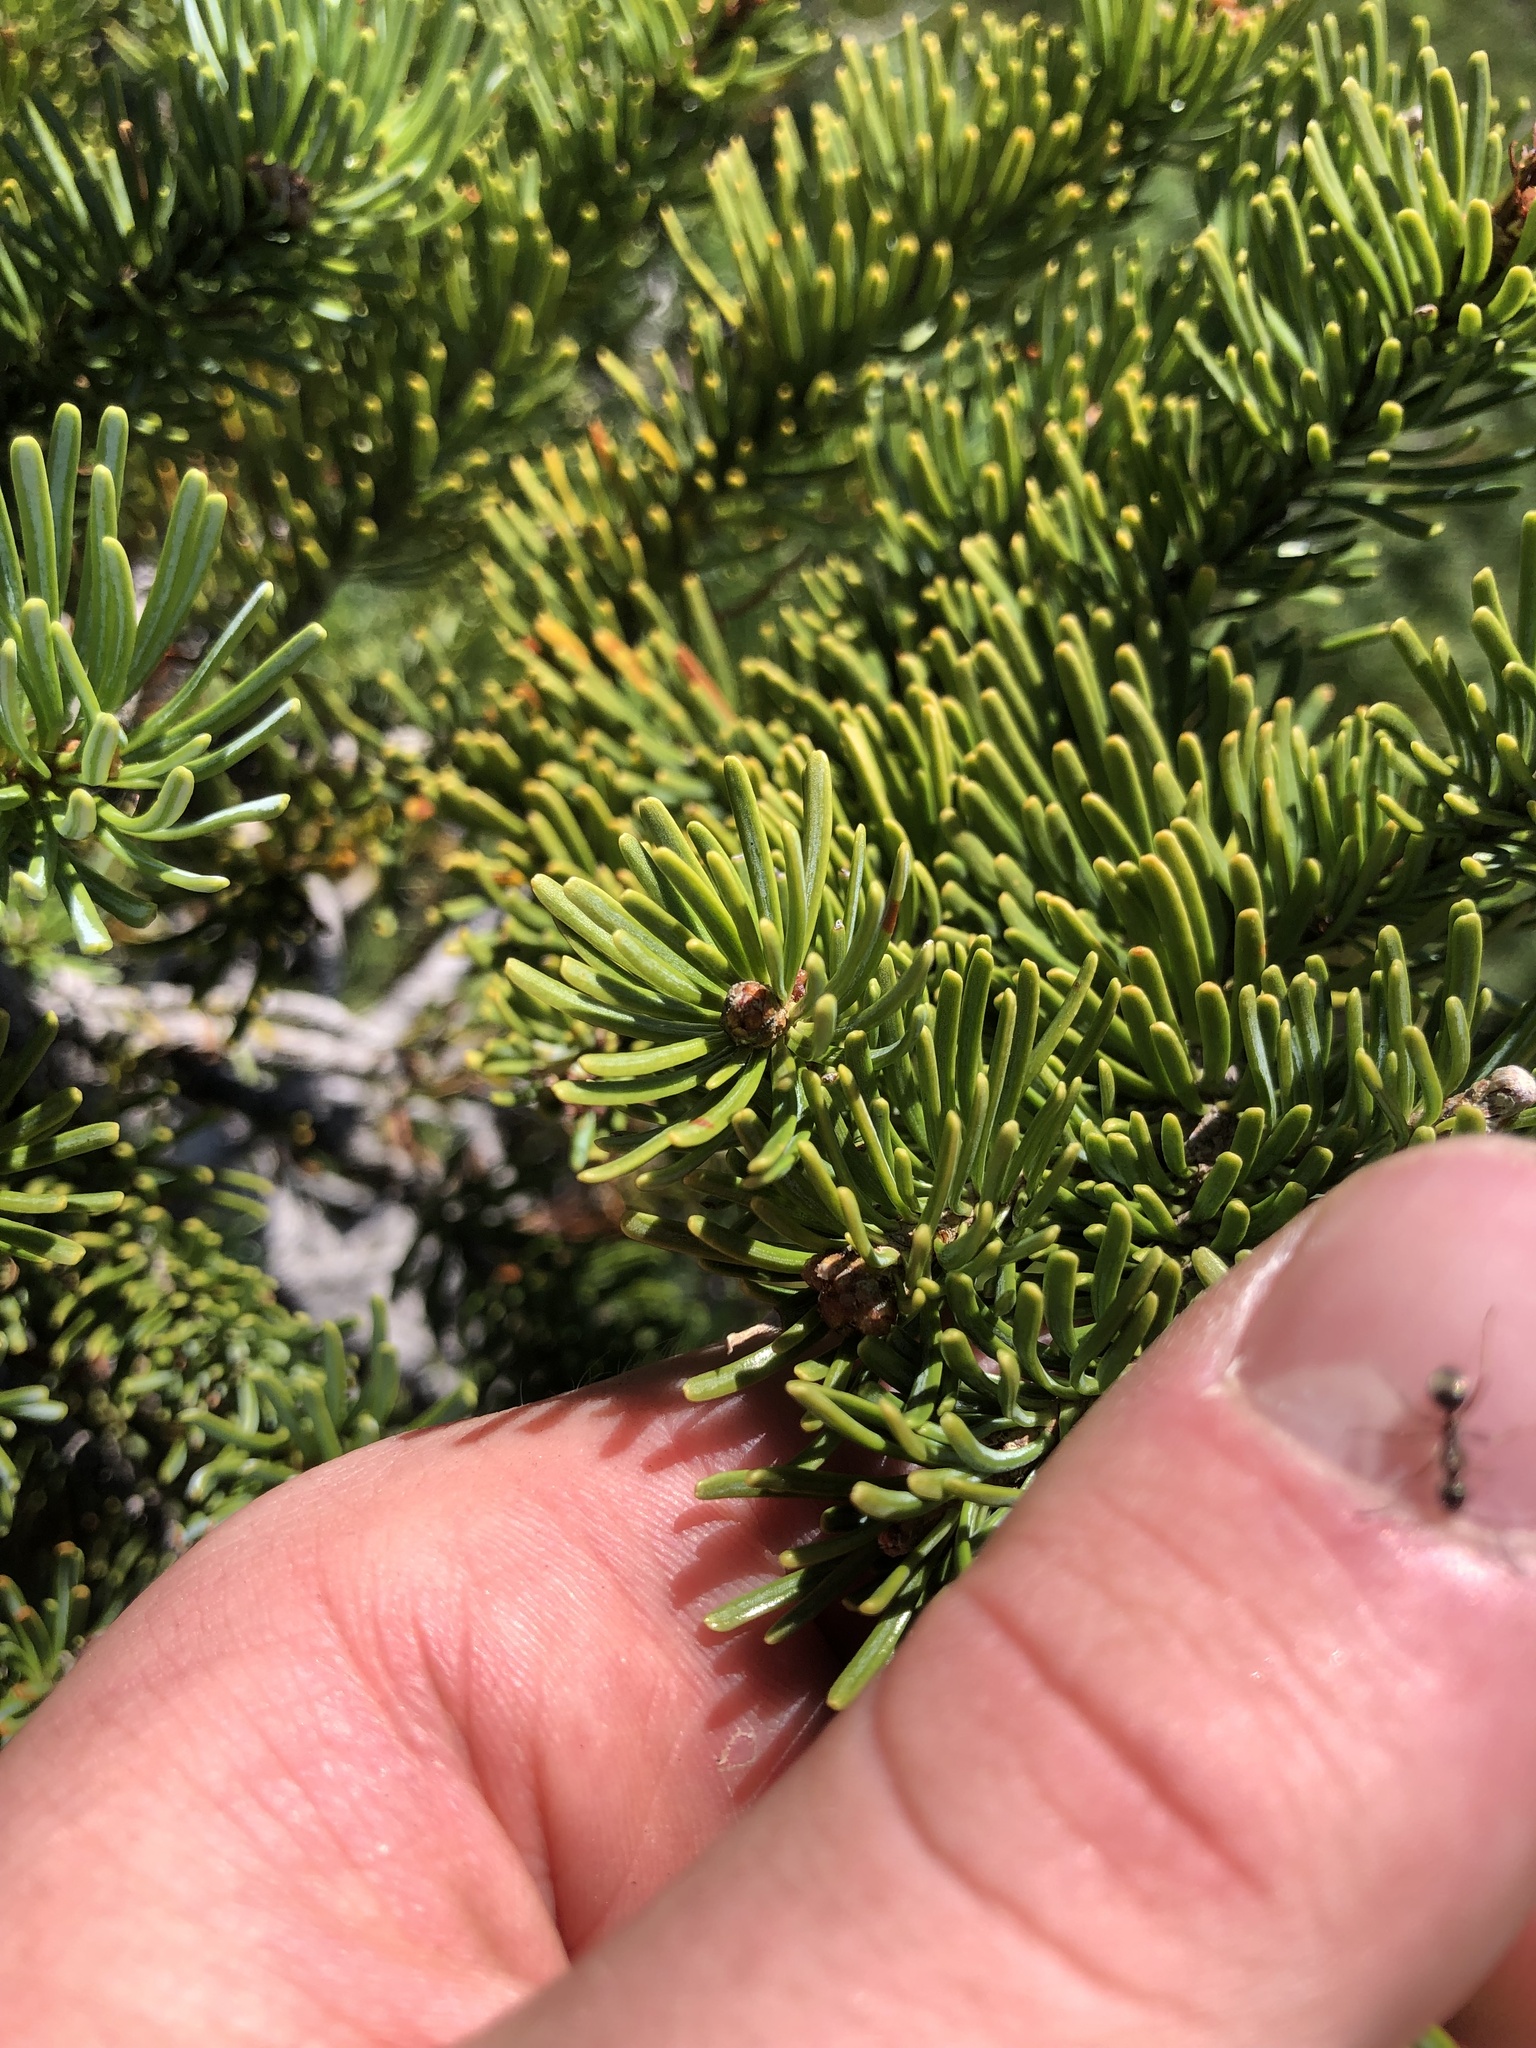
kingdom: Plantae
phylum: Tracheophyta
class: Pinopsida
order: Pinales
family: Pinaceae
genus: Abies
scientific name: Abies lasiocarpa
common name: Subalpine fir
